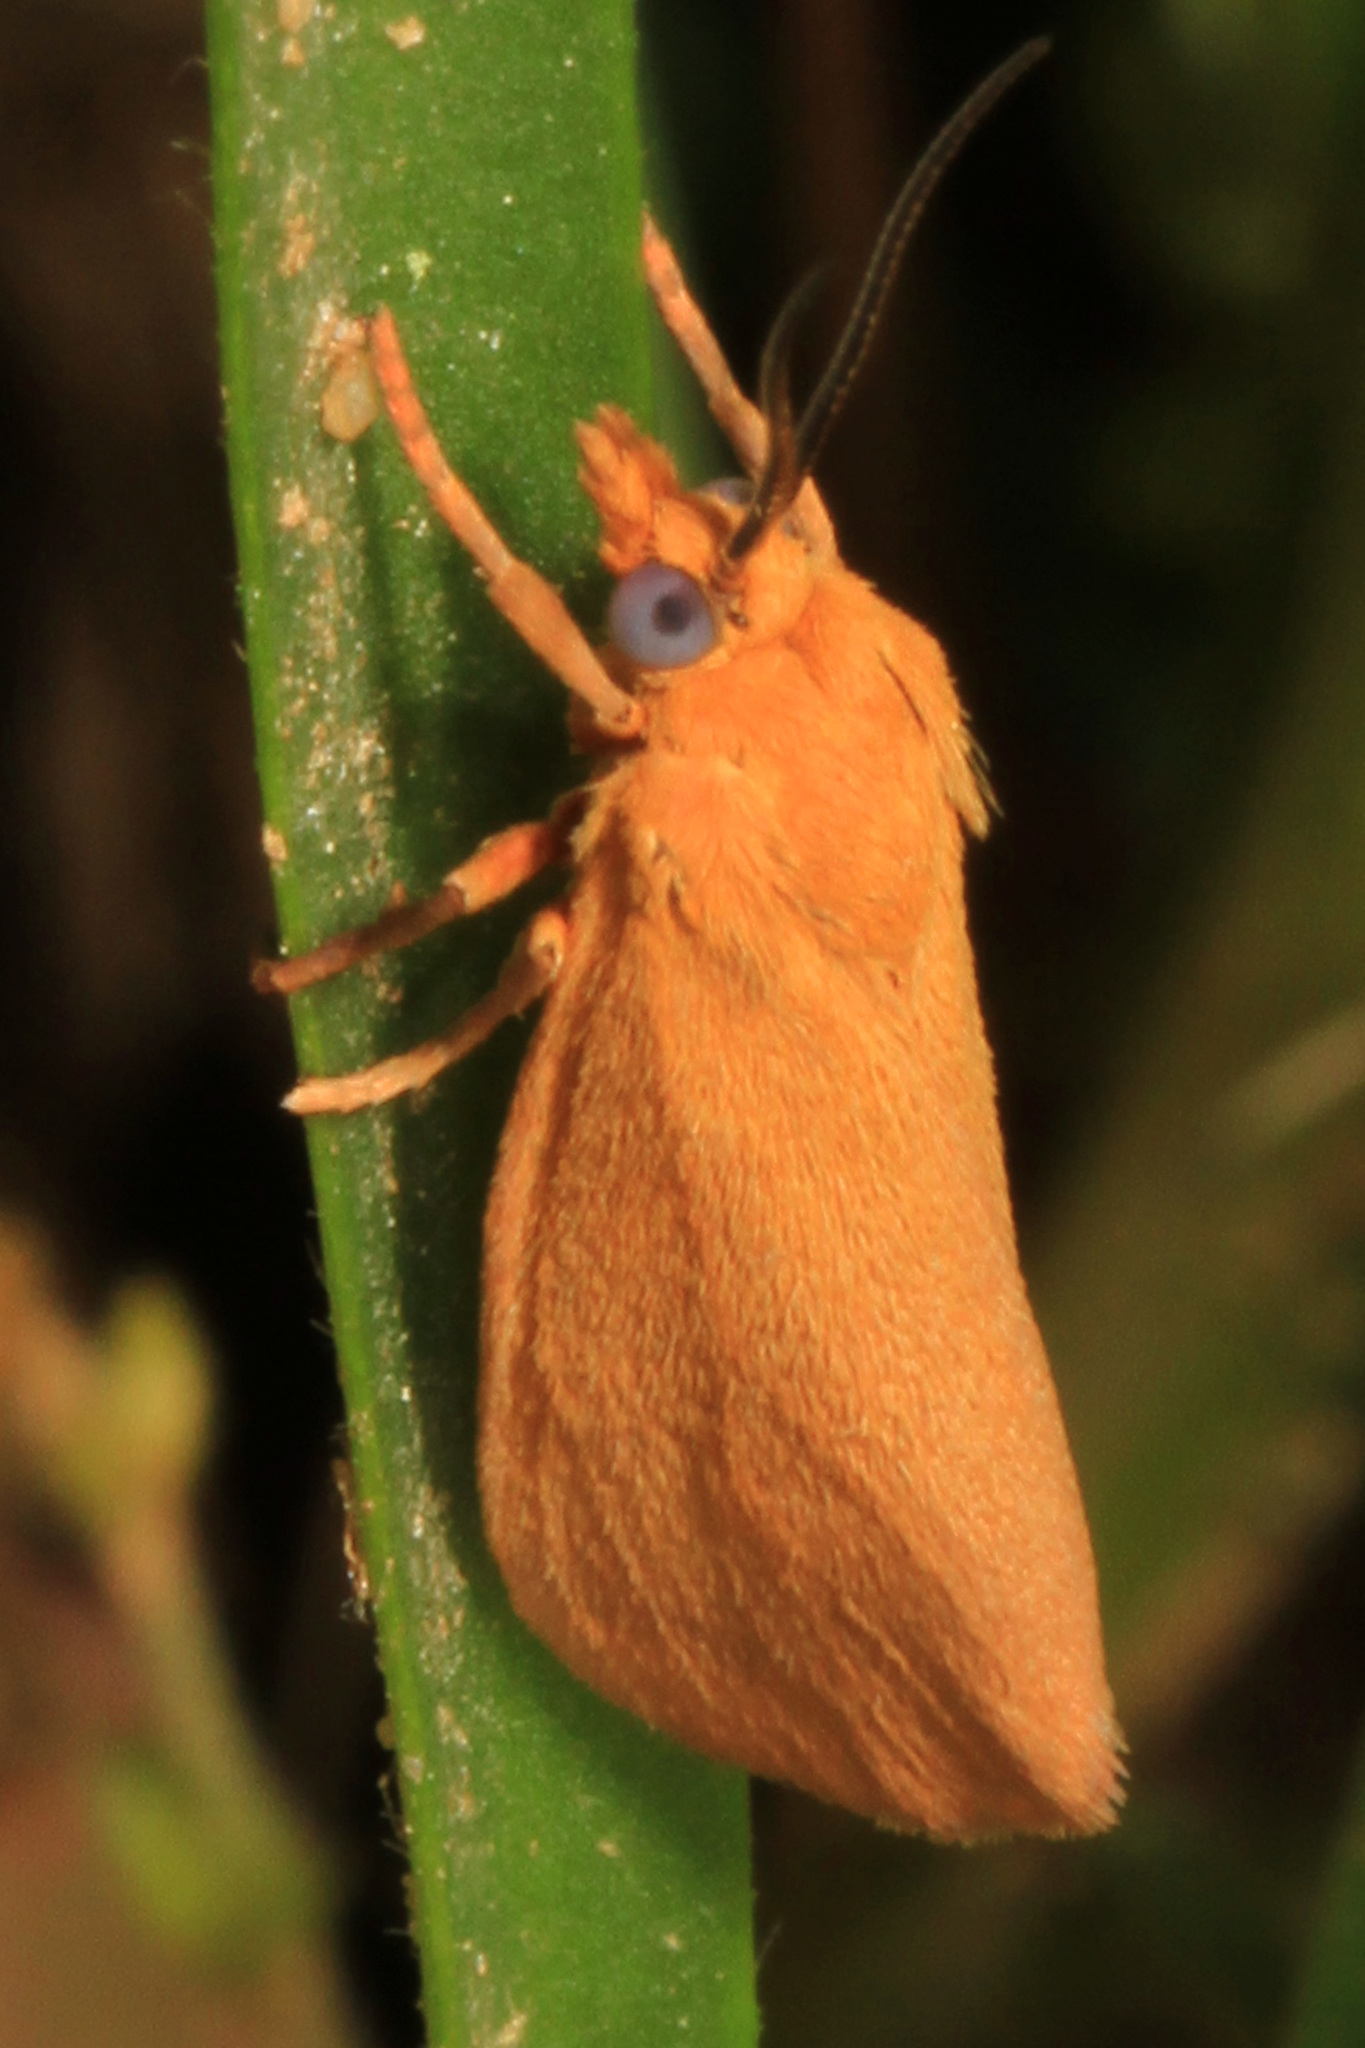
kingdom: Animalia
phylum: Arthropoda
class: Insecta
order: Lepidoptera
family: Erebidae
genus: Virbia
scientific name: Virbia aurantiaca
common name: Orange virbia moth
